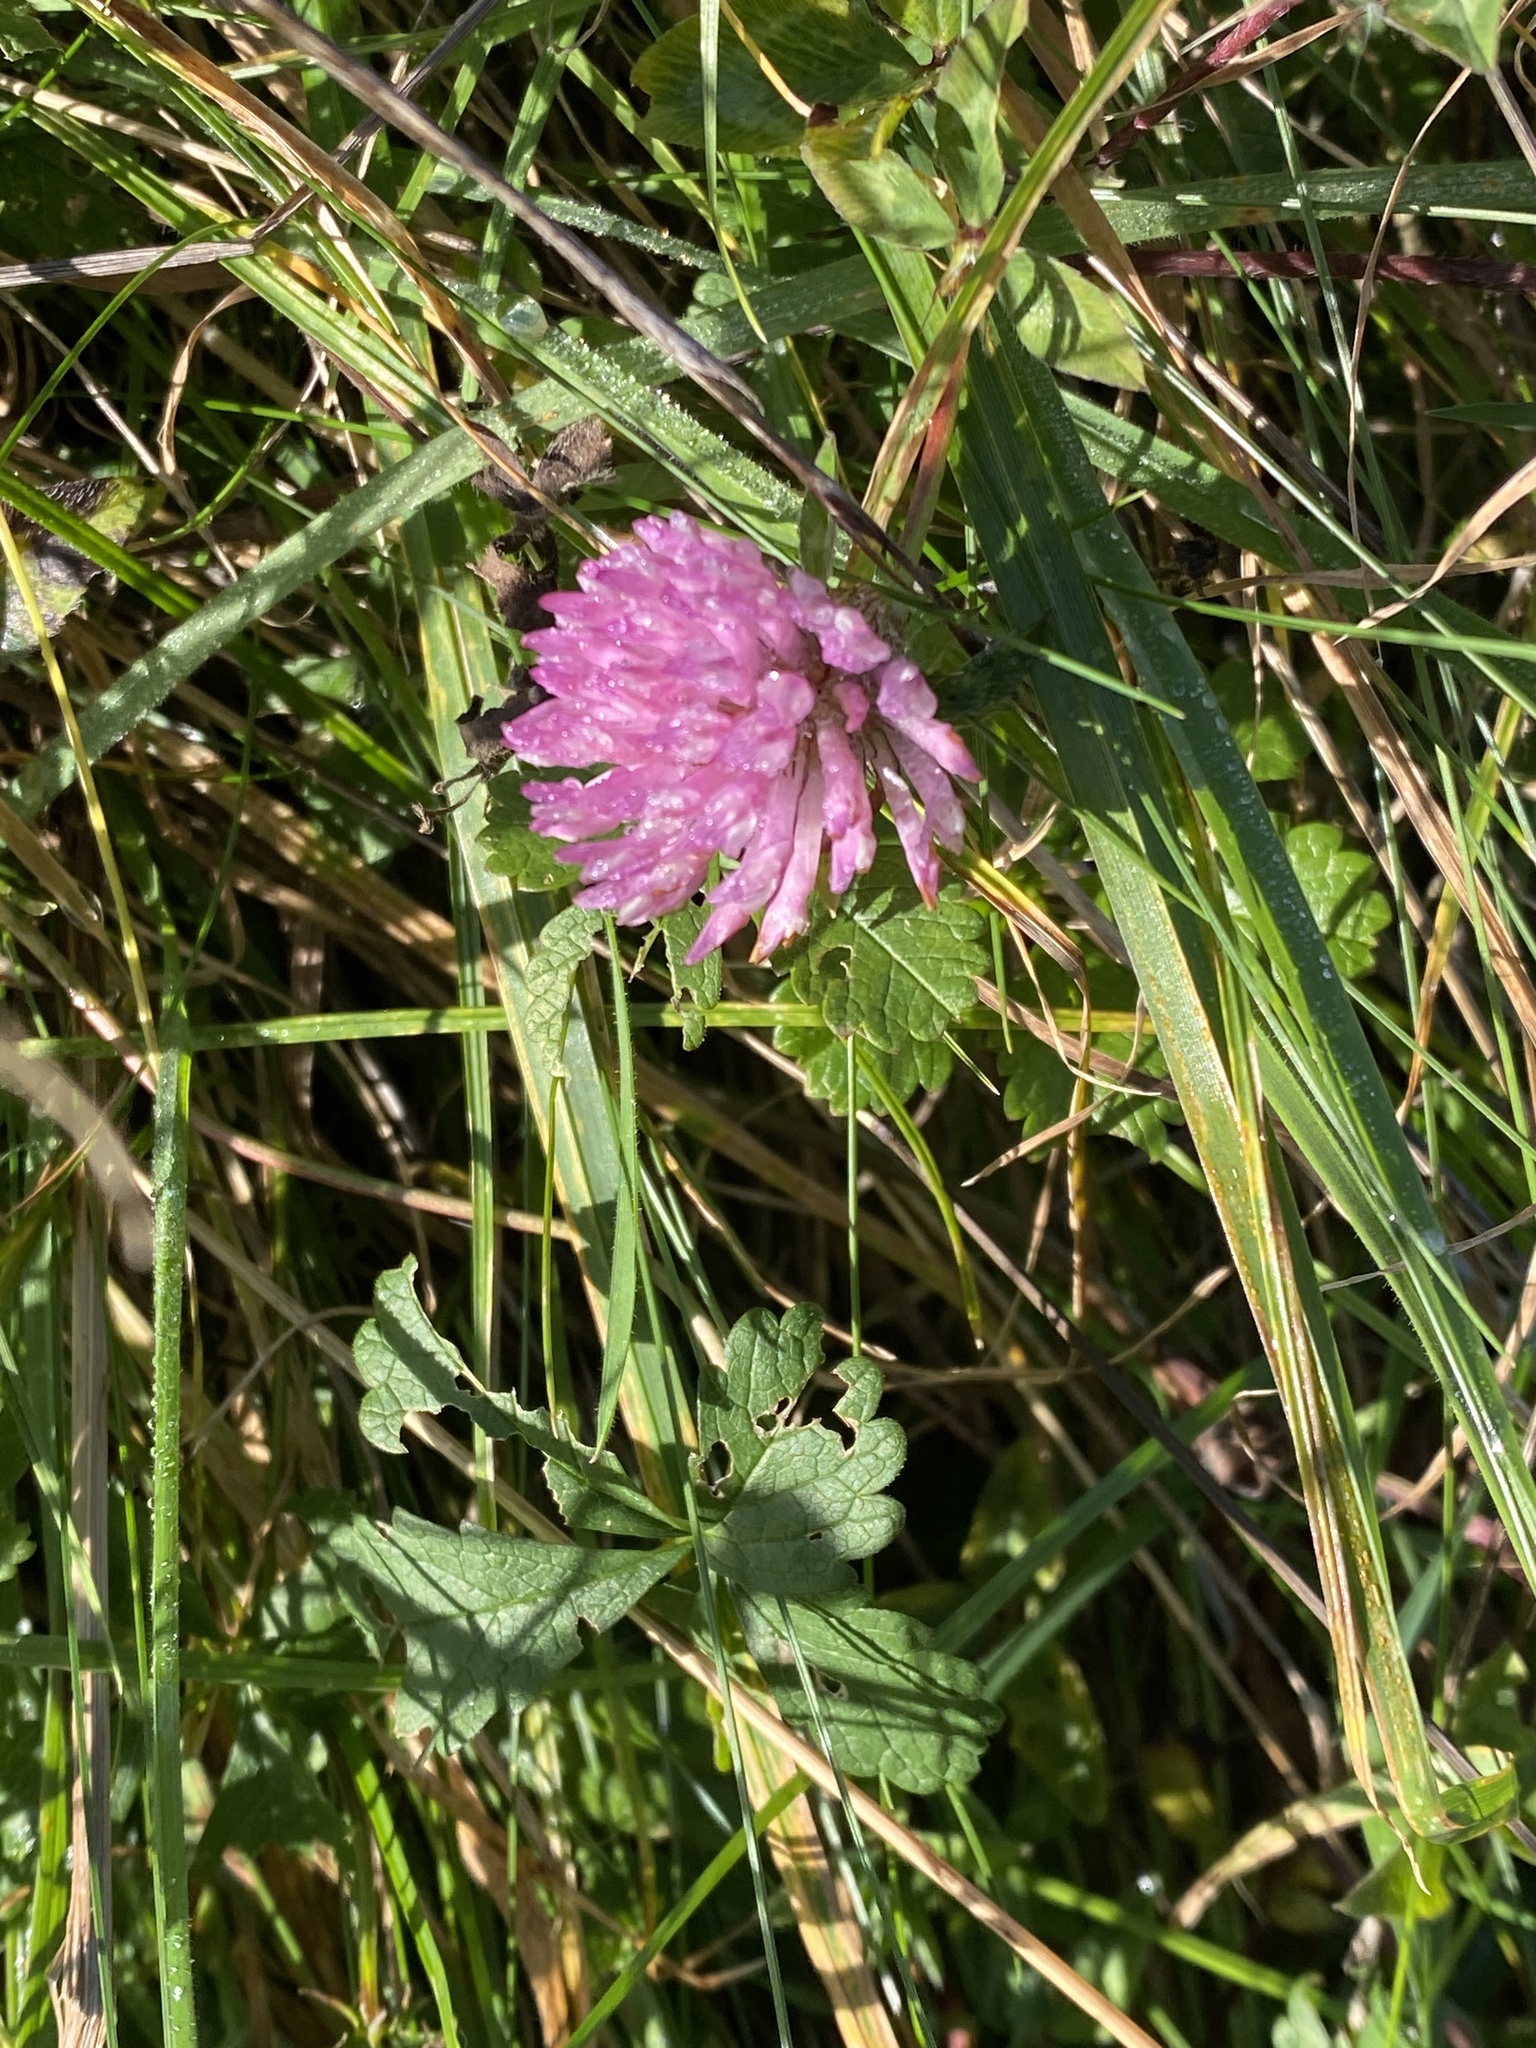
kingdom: Plantae
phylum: Tracheophyta
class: Magnoliopsida
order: Fabales
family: Fabaceae
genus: Trifolium
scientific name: Trifolium pratense
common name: Red clover
